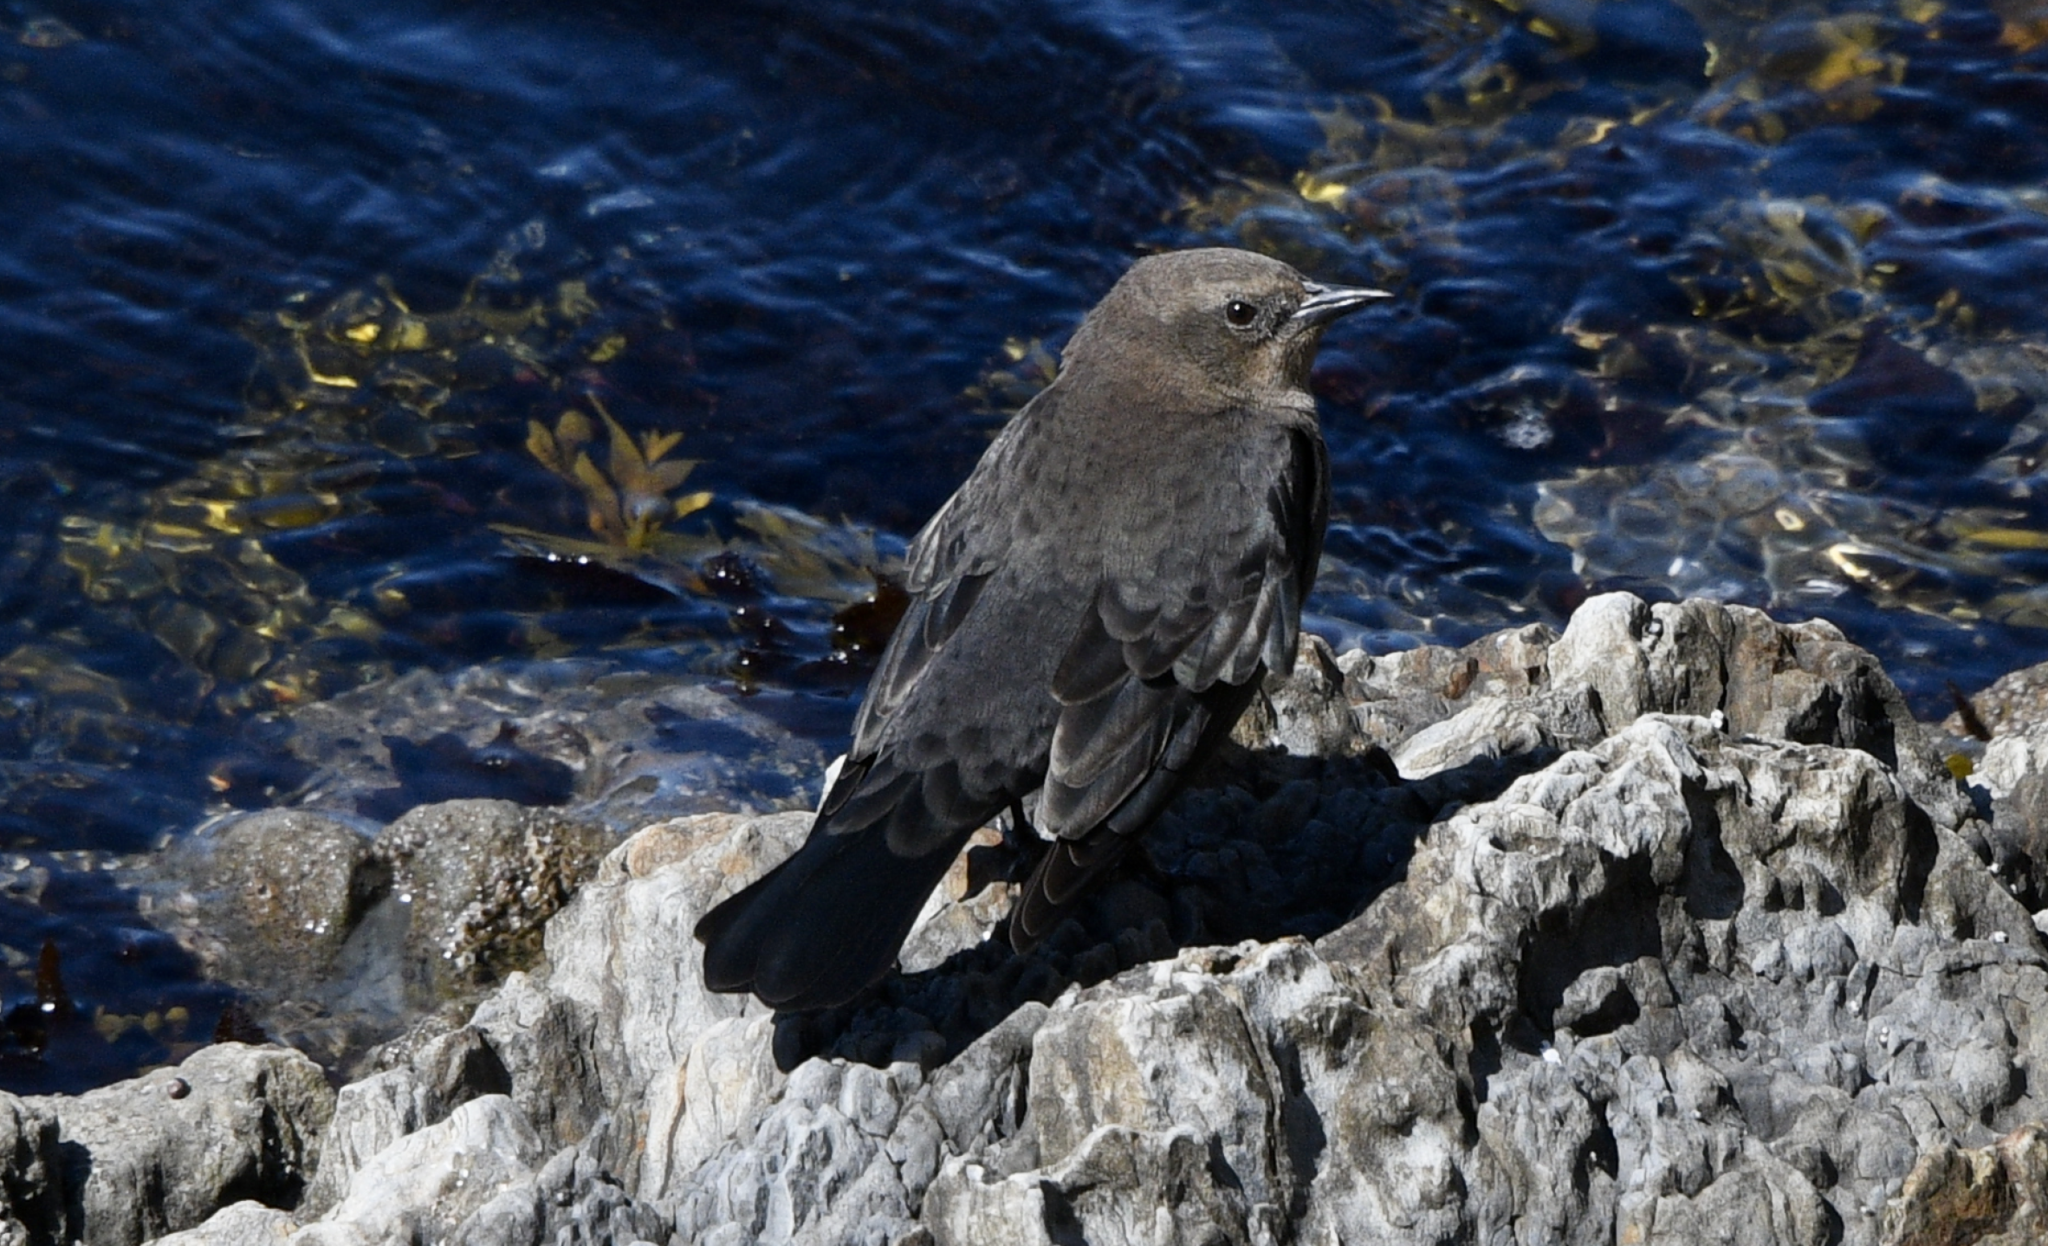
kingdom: Animalia
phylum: Chordata
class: Aves
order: Passeriformes
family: Icteridae
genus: Euphagus
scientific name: Euphagus cyanocephalus
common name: Brewer's blackbird
